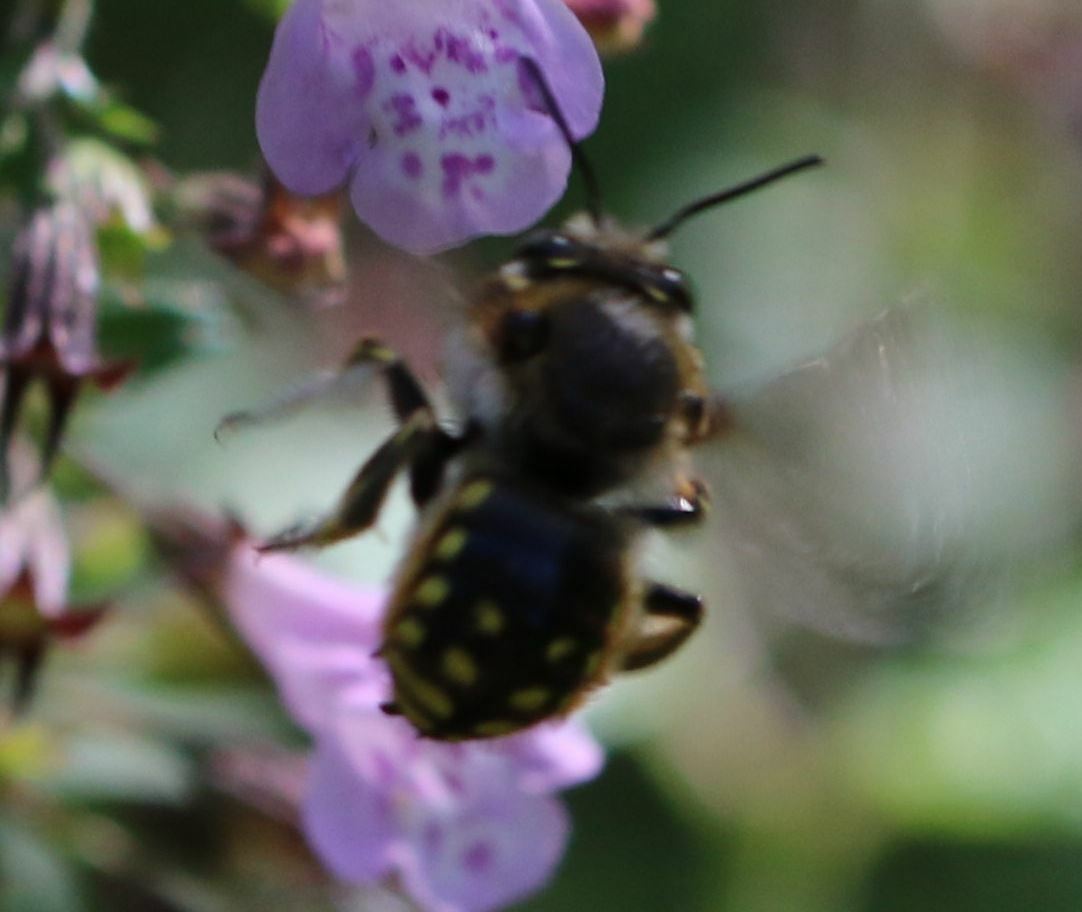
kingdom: Animalia
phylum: Arthropoda
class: Insecta
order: Hymenoptera
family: Megachilidae
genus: Anthidium
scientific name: Anthidium manicatum
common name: Wool carder bee
